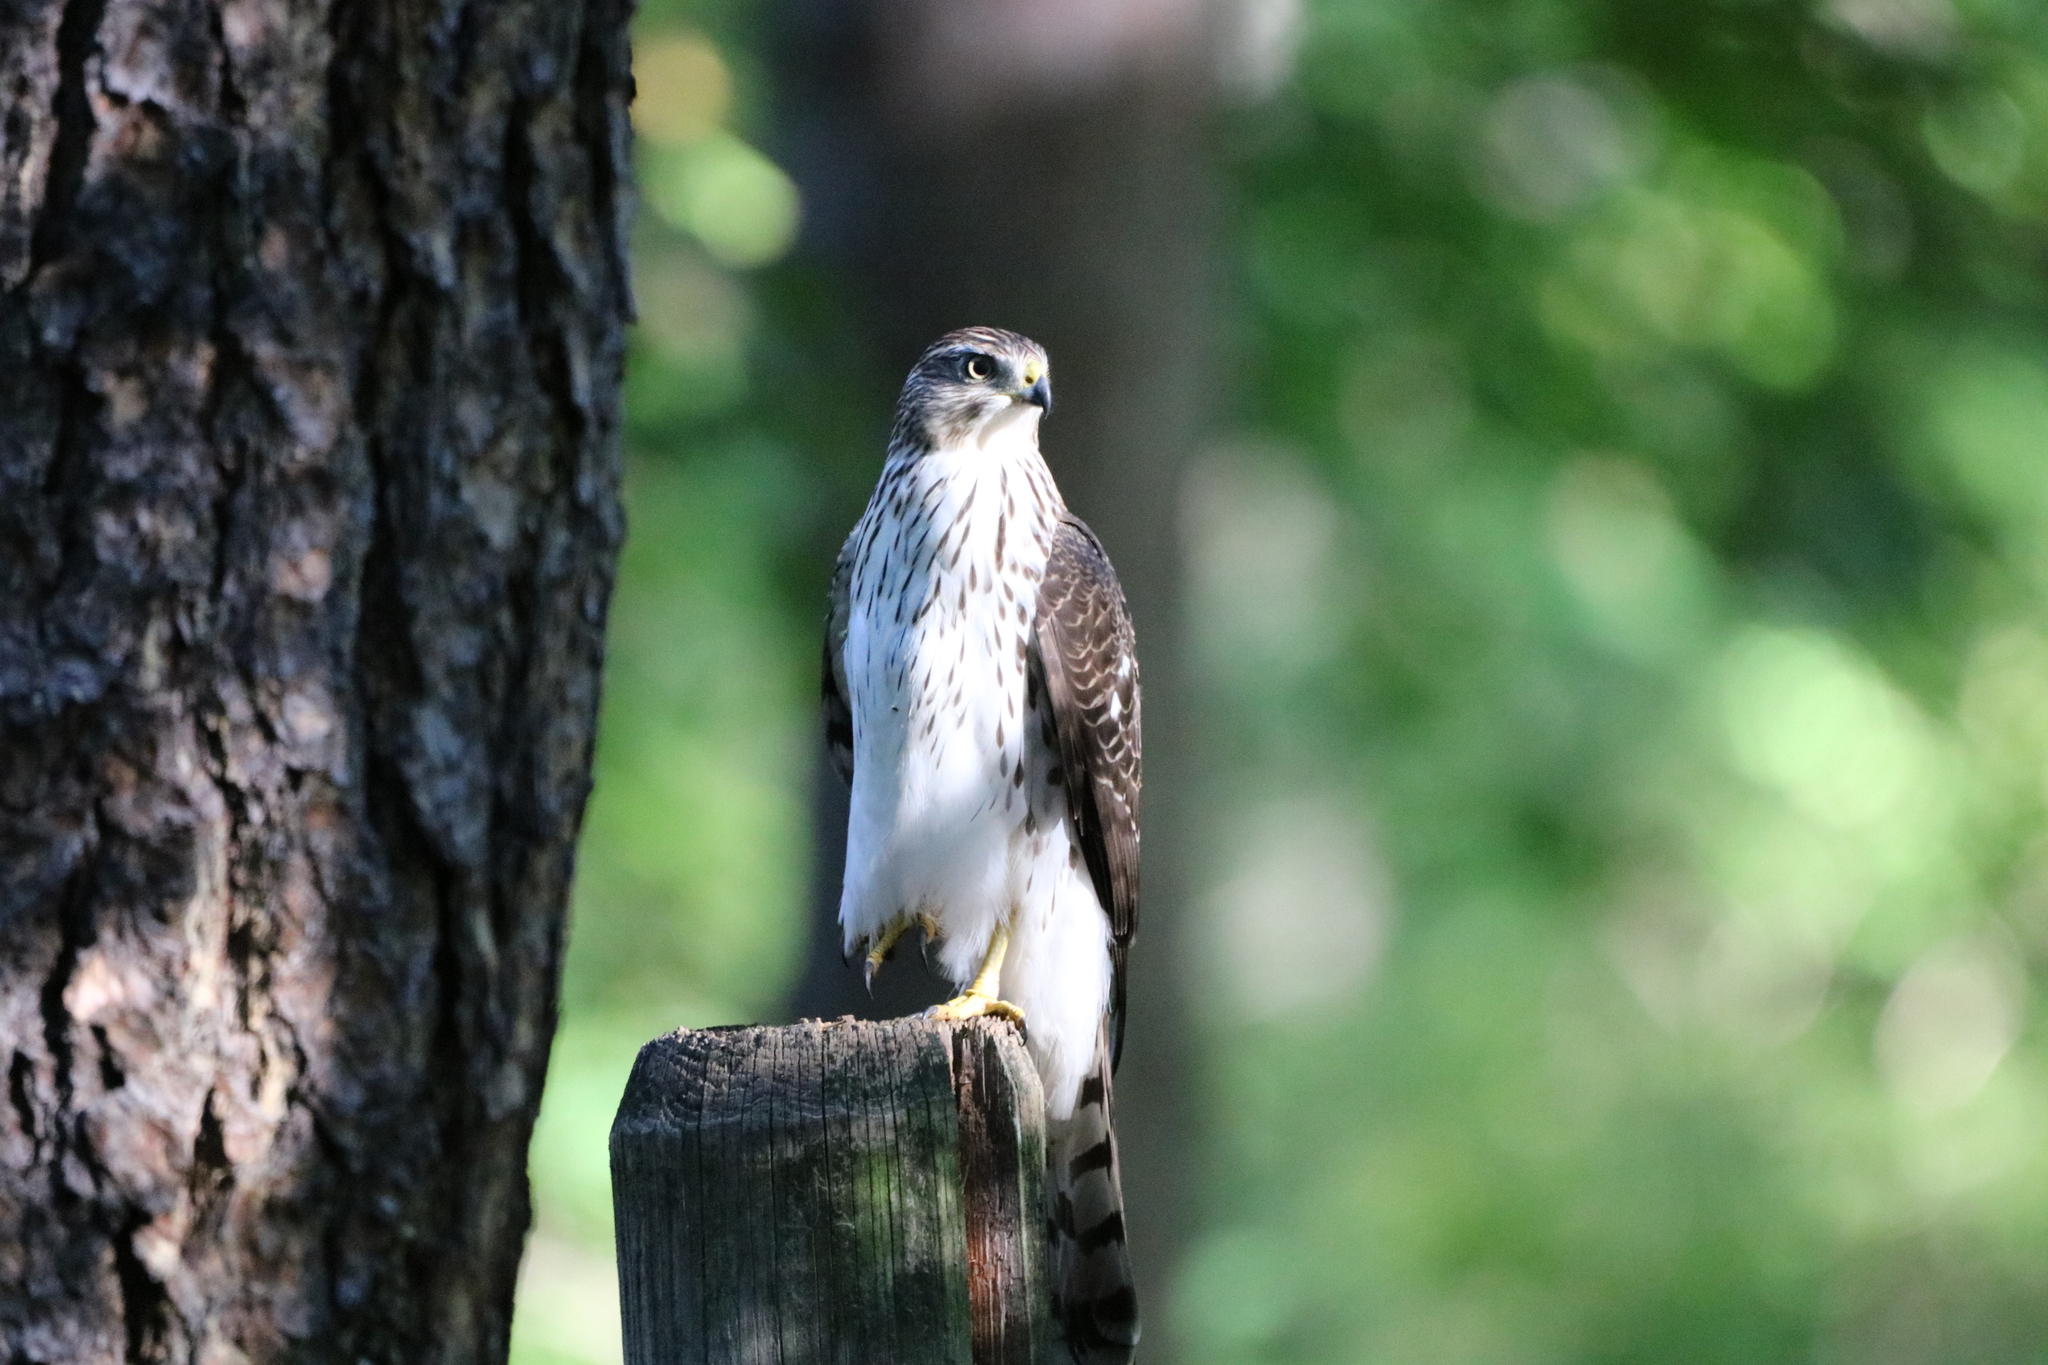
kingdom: Animalia
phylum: Chordata
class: Aves
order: Accipitriformes
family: Accipitridae
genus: Accipiter
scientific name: Accipiter cooperii
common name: Cooper's hawk
